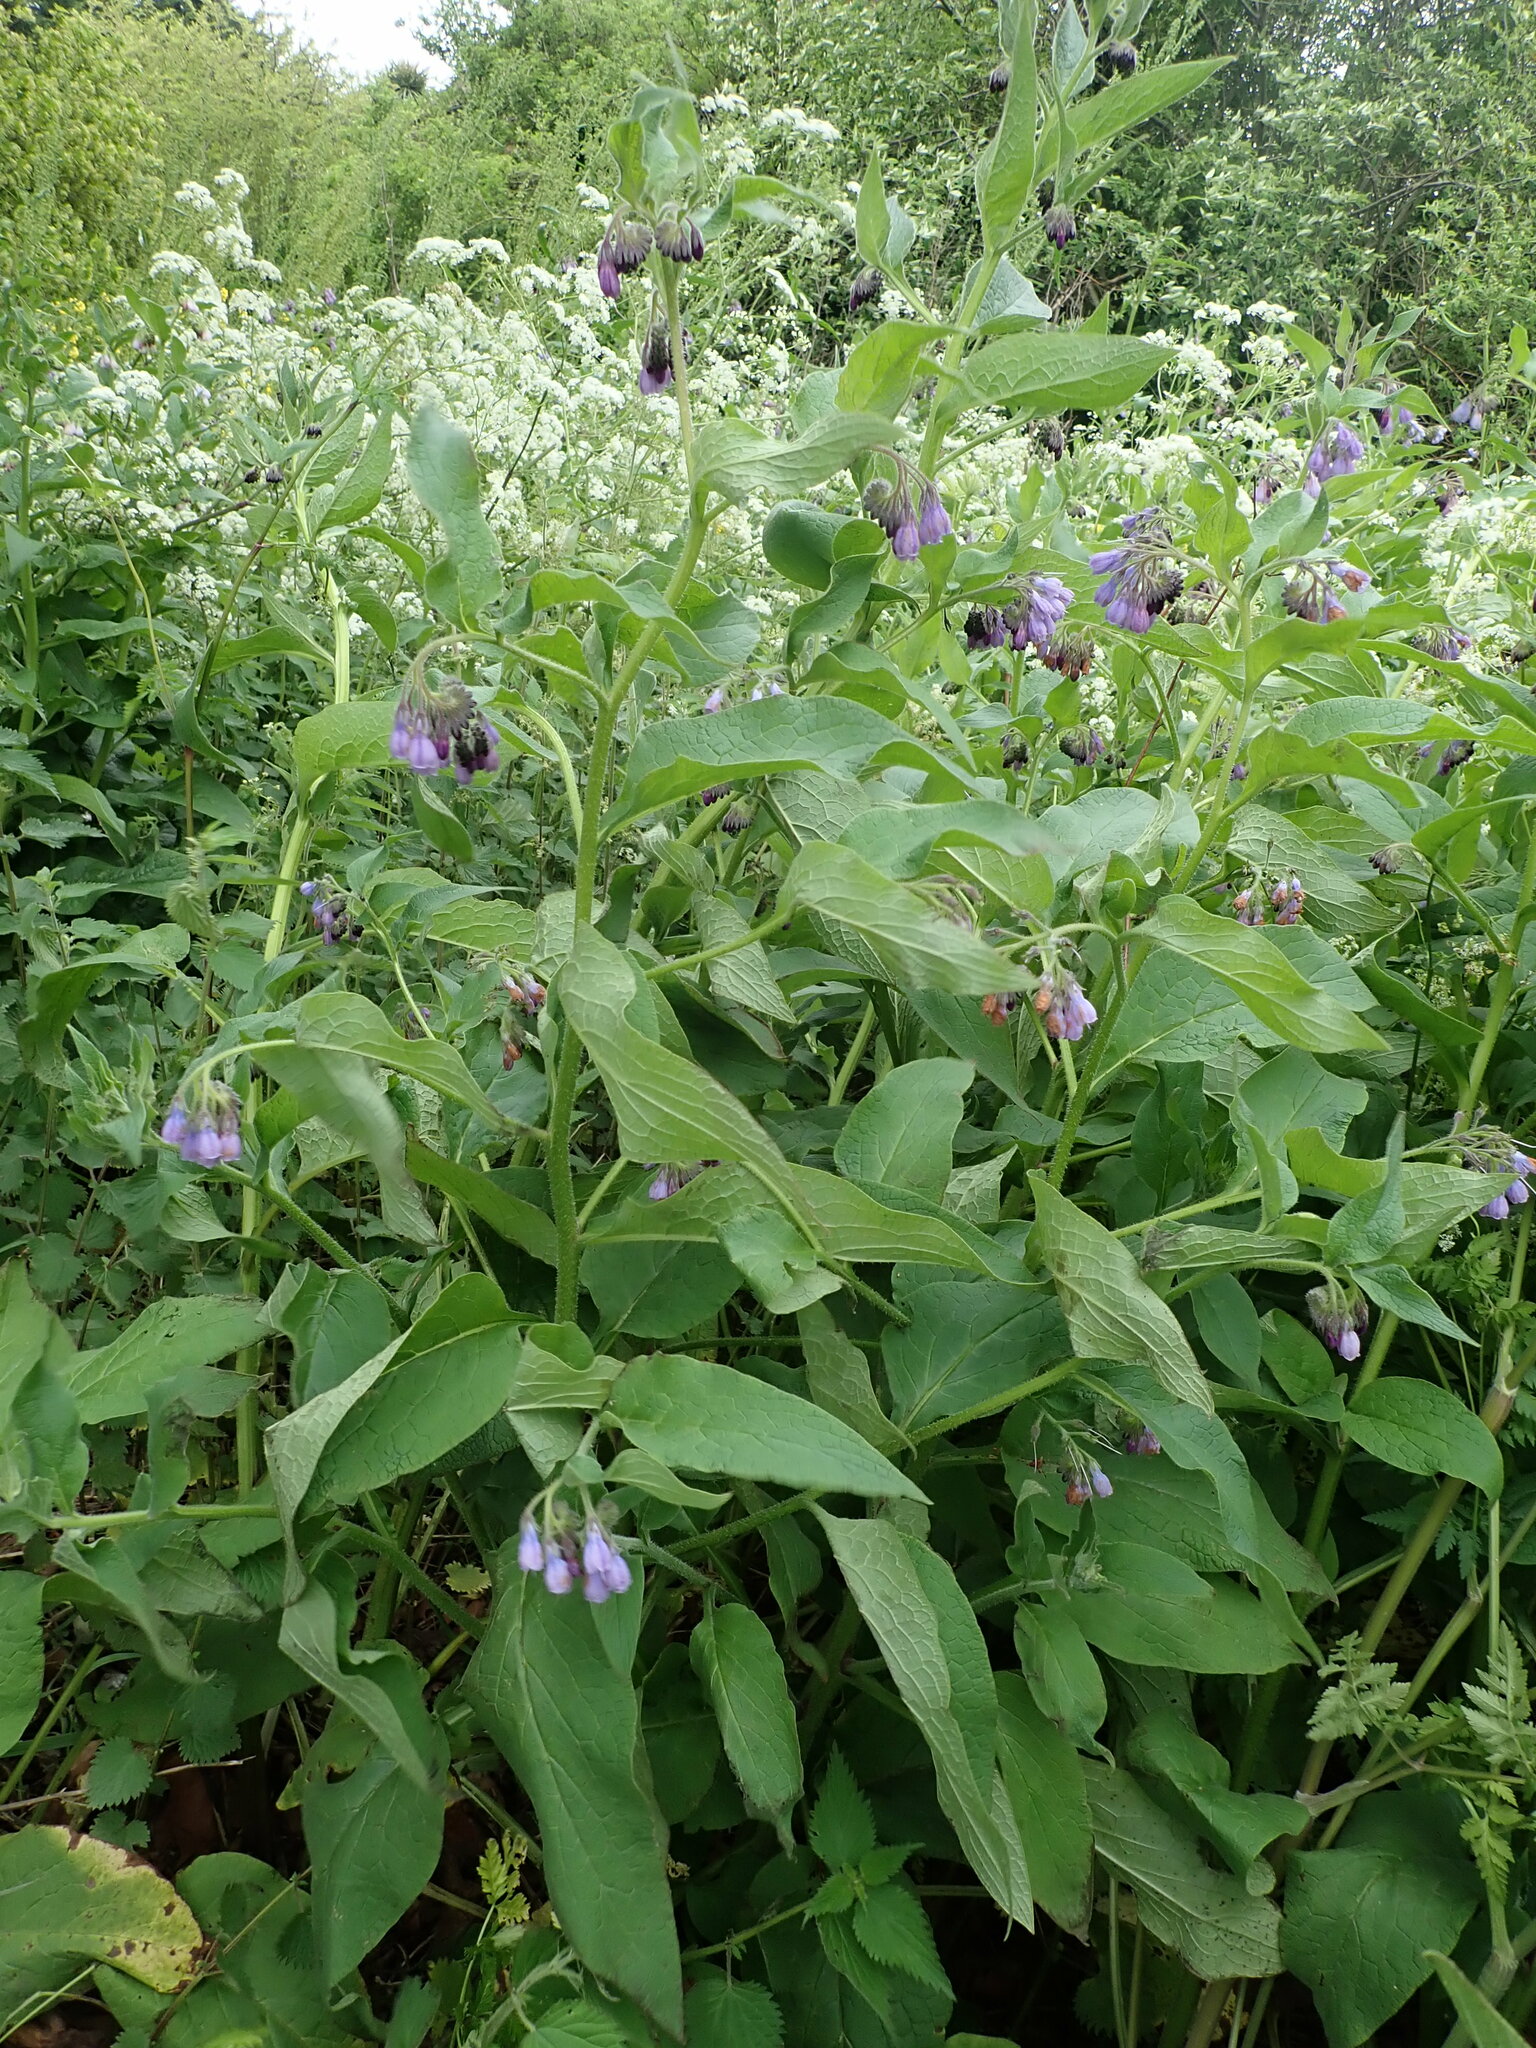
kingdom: Plantae
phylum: Tracheophyta
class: Magnoliopsida
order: Boraginales
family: Boraginaceae
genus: Symphytum
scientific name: Symphytum uplandicum
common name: Russian comfrey
